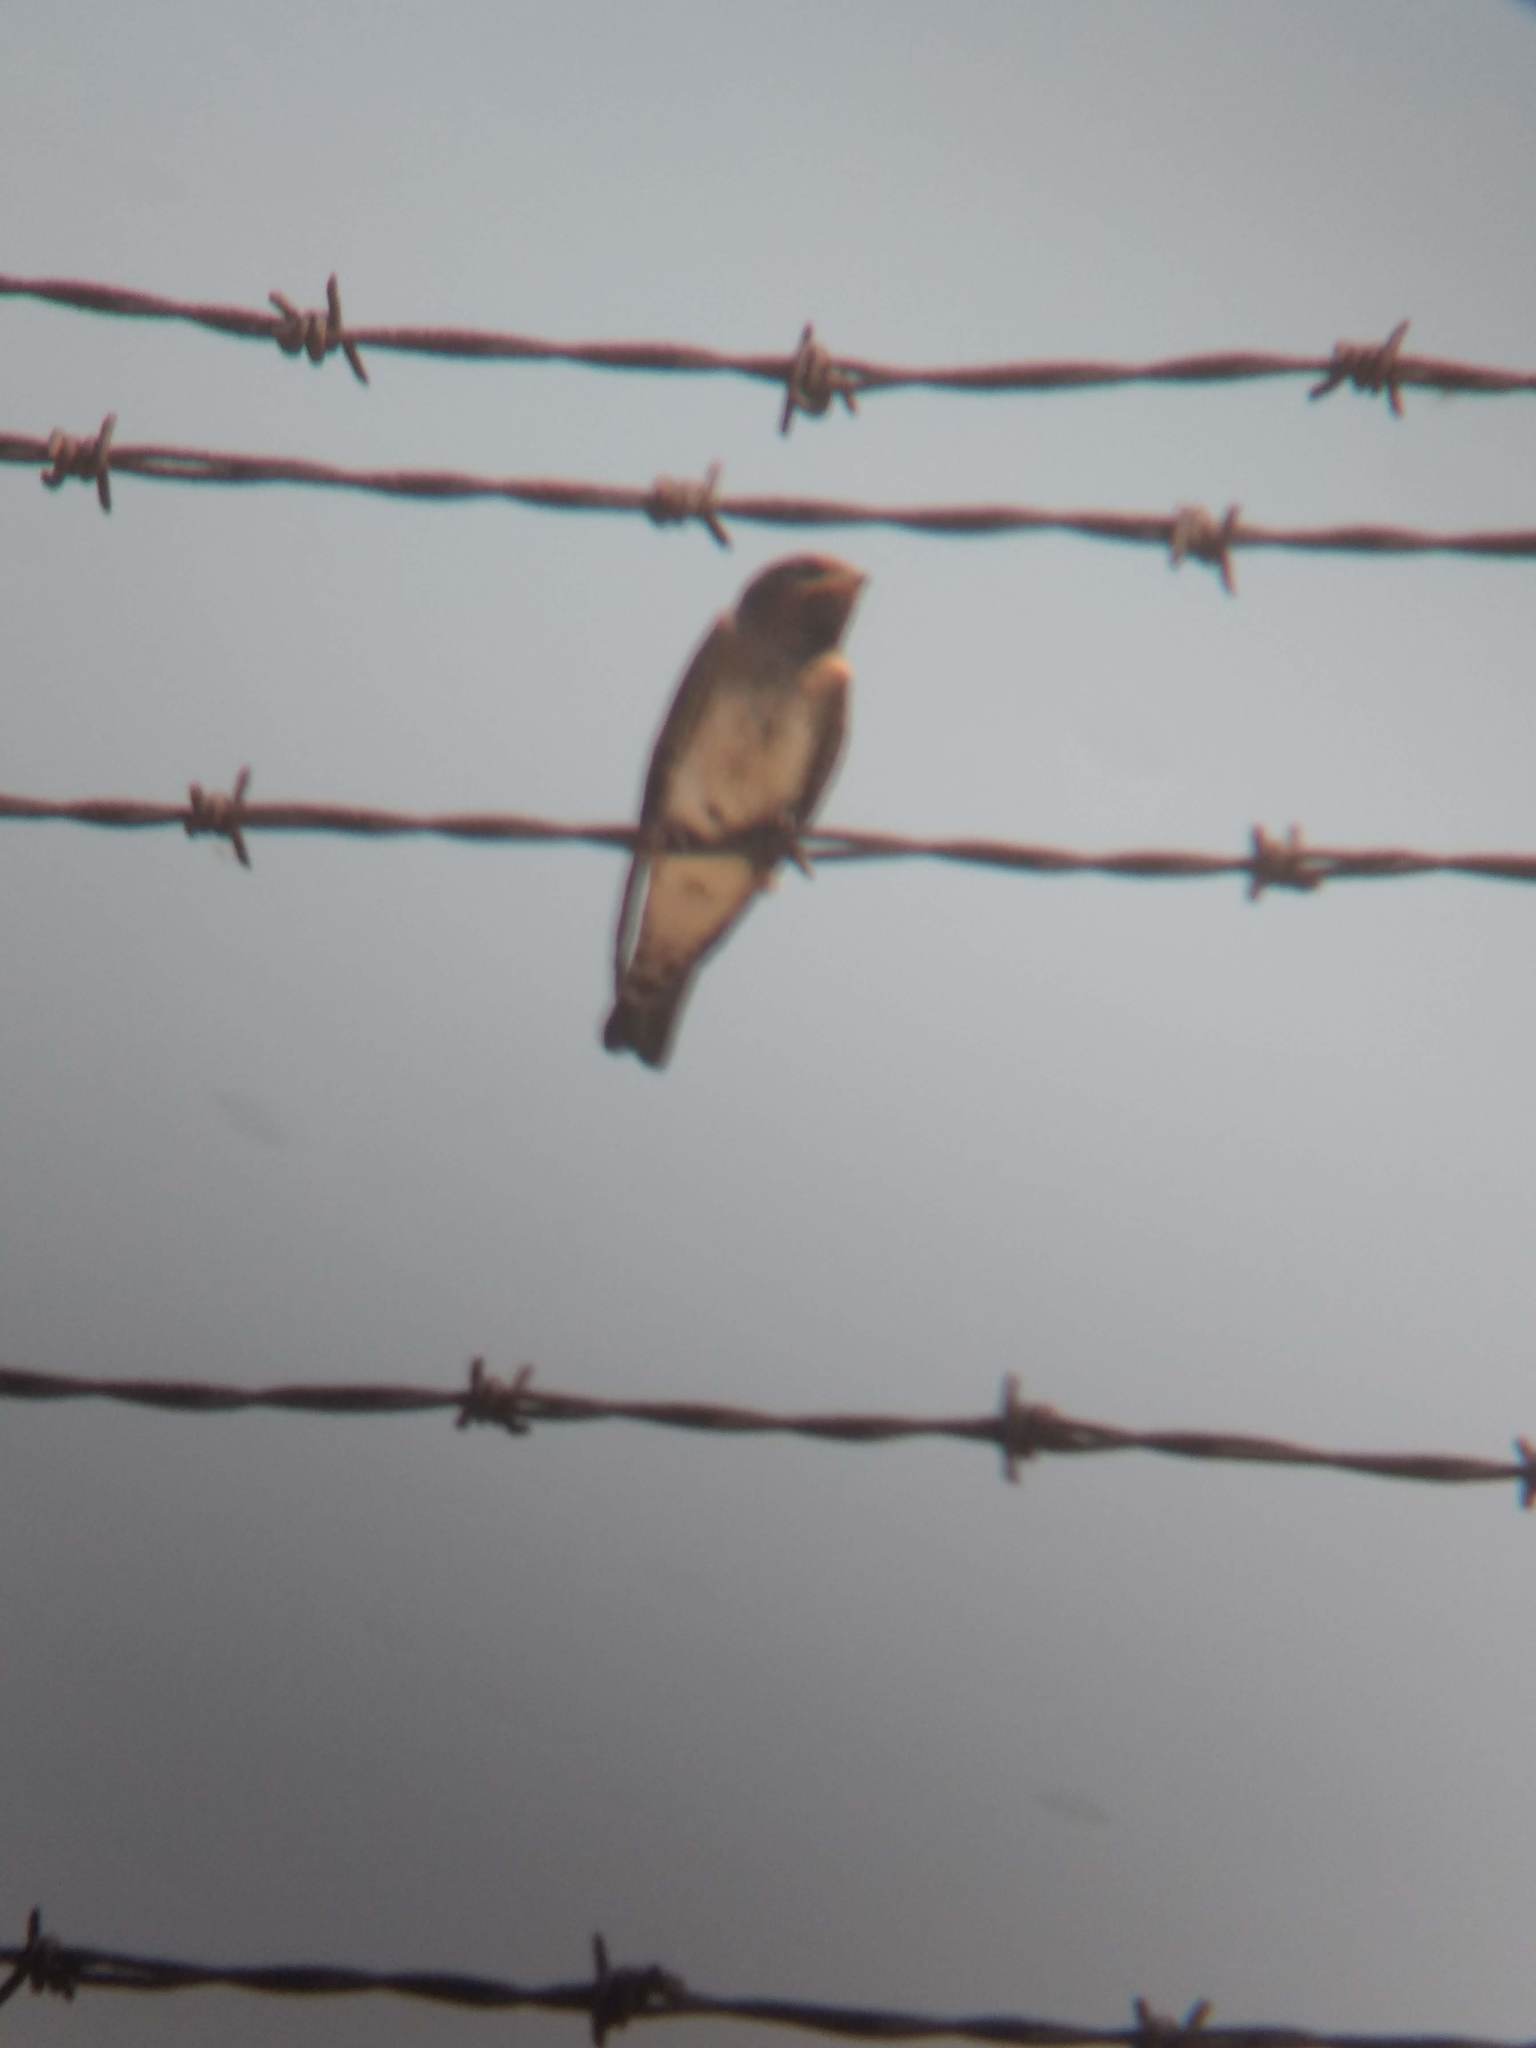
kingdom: Animalia
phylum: Chordata
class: Aves
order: Passeriformes
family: Hirundinidae
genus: Petrochelidon
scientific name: Petrochelidon pyrrhonota
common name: American cliff swallow
